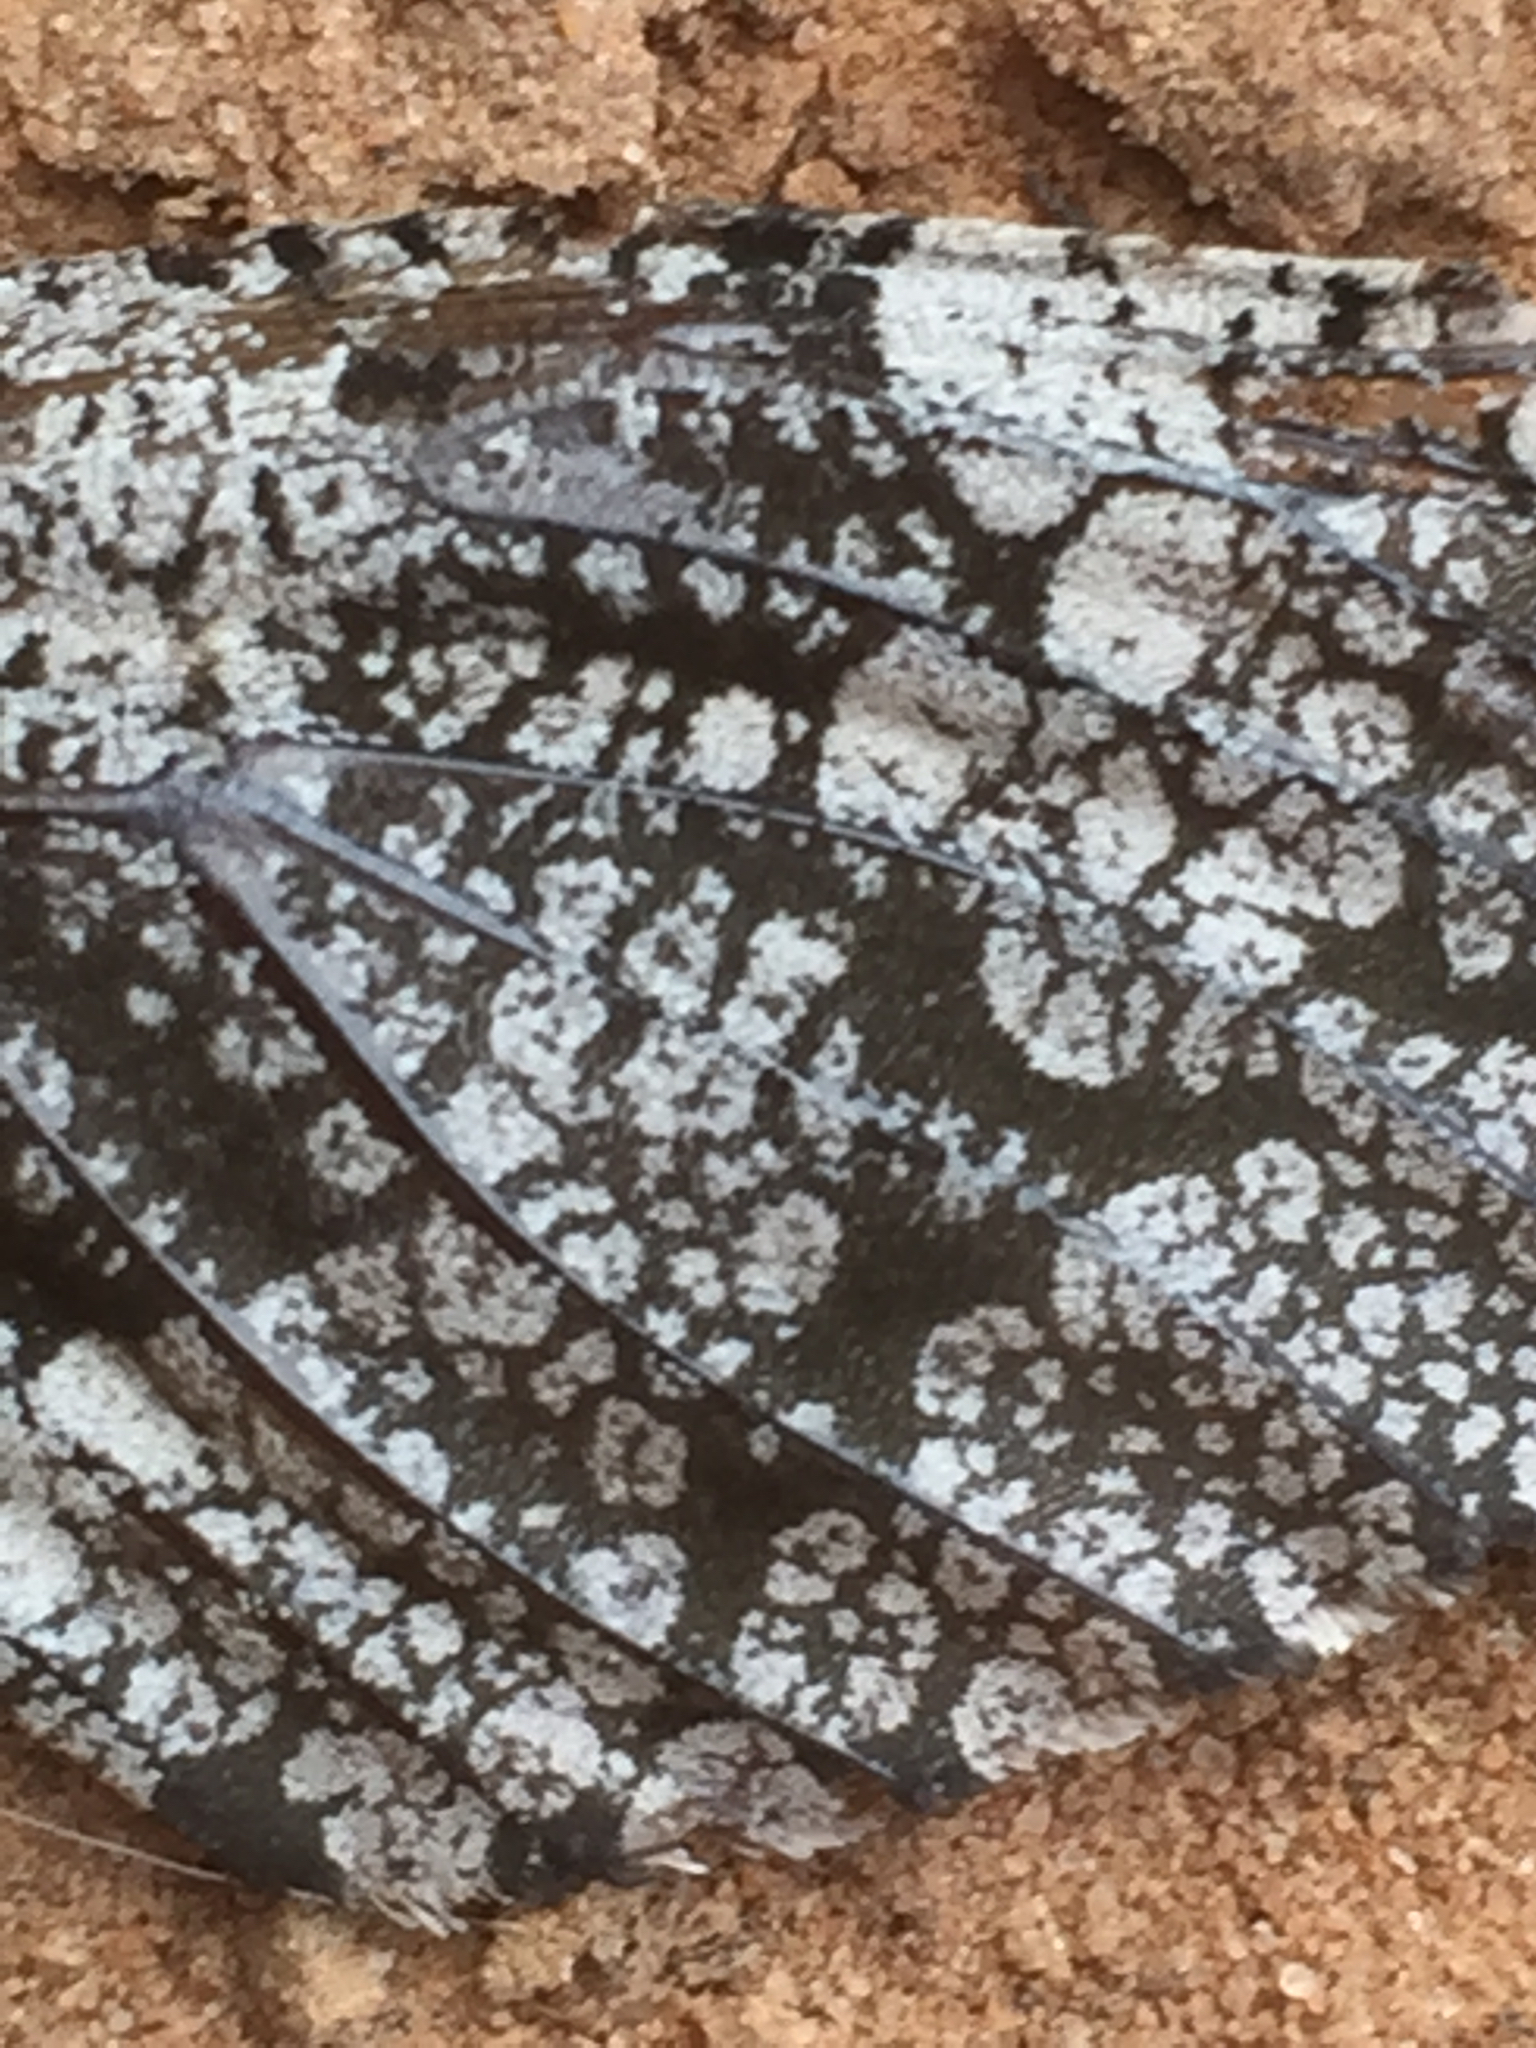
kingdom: Animalia
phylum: Arthropoda
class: Insecta
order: Lepidoptera
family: Cossidae
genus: Prionoxystus
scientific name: Prionoxystus robiniae
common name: Carpenterworm
